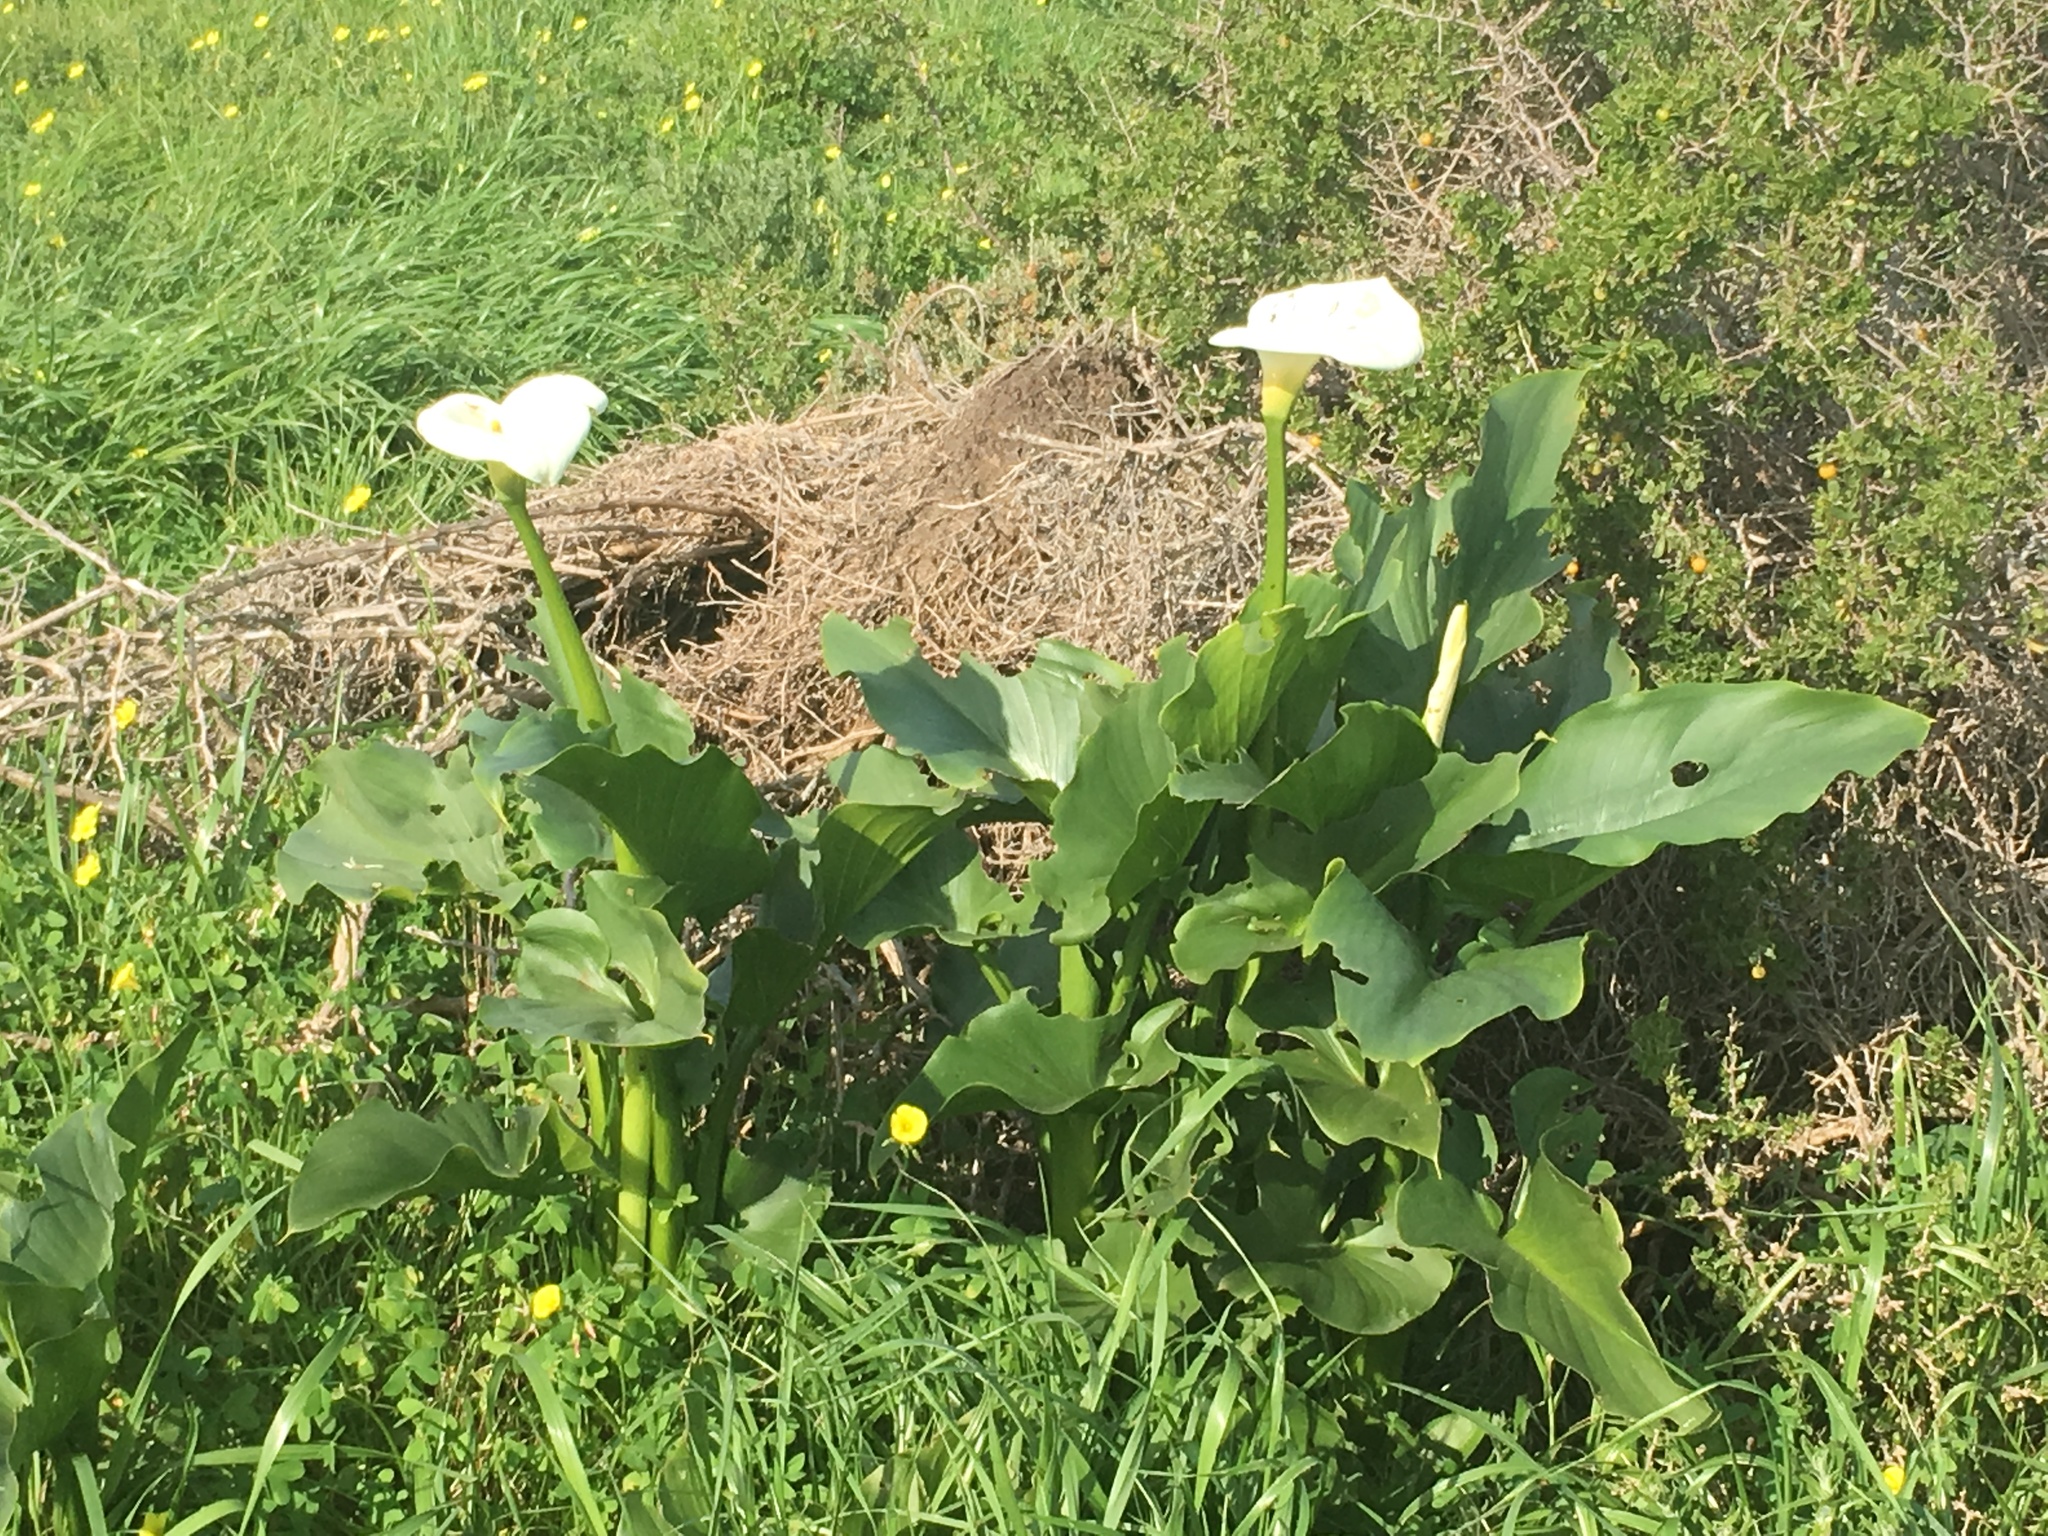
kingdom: Plantae
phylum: Tracheophyta
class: Liliopsida
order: Alismatales
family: Araceae
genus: Zantedeschia
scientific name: Zantedeschia aethiopica
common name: Altar-lily
